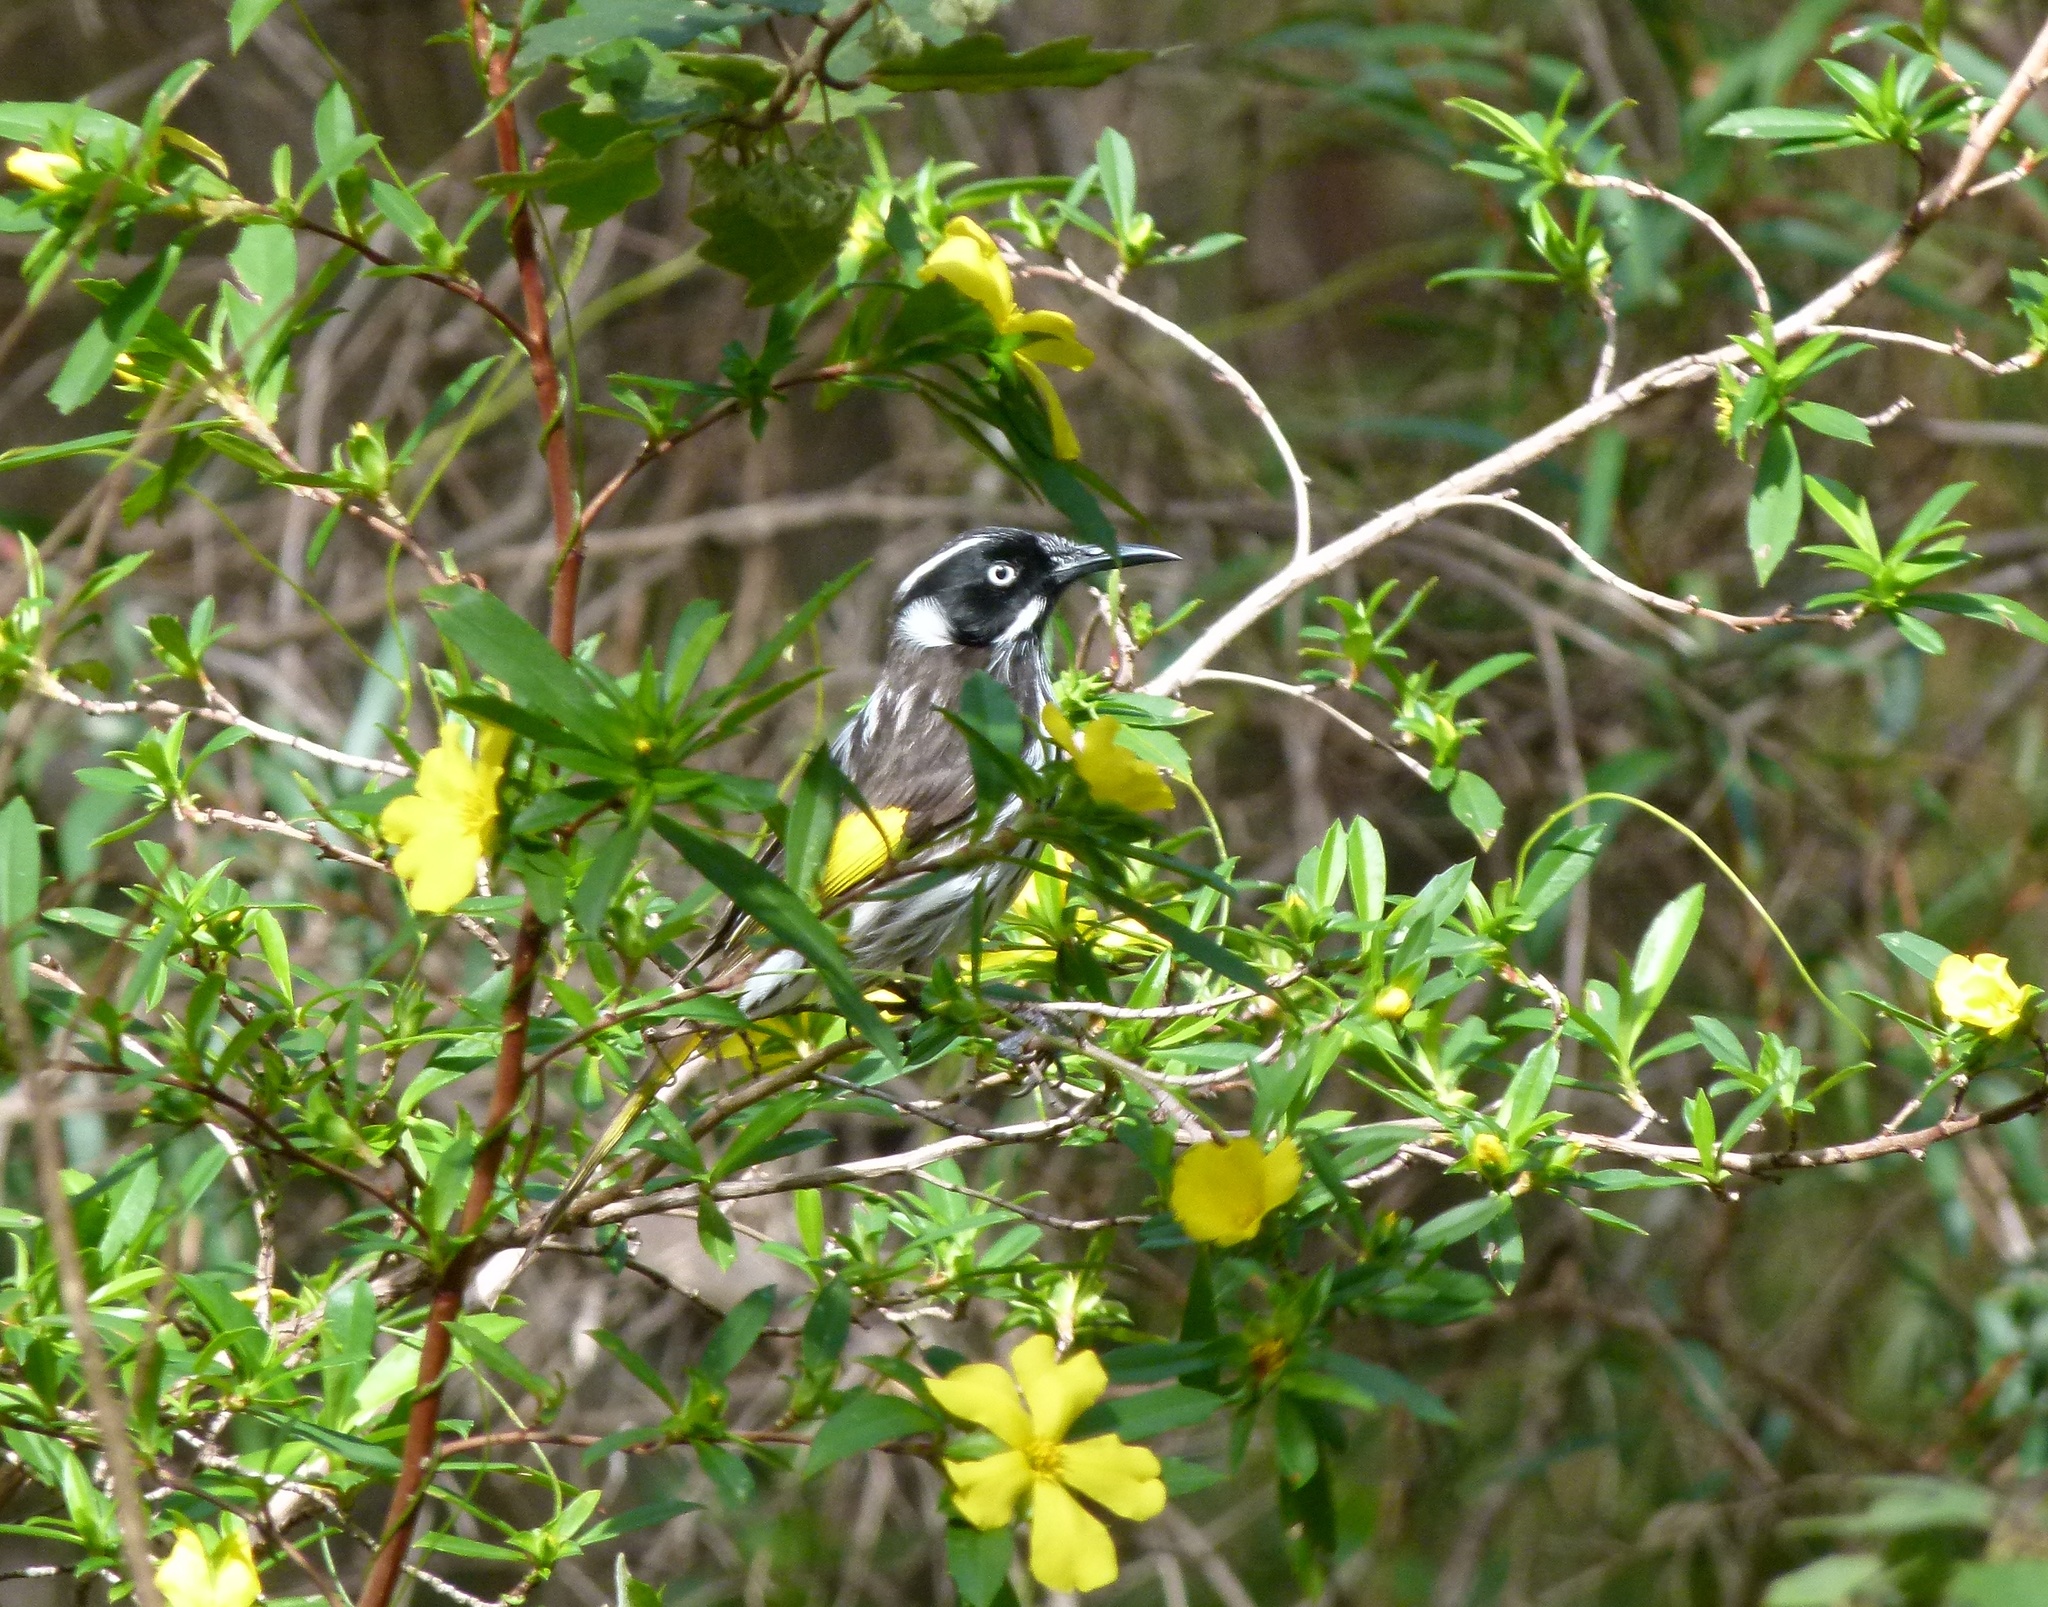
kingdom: Animalia
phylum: Chordata
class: Aves
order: Passeriformes
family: Meliphagidae
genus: Phylidonyris
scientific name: Phylidonyris novaehollandiae
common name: New holland honeyeater
